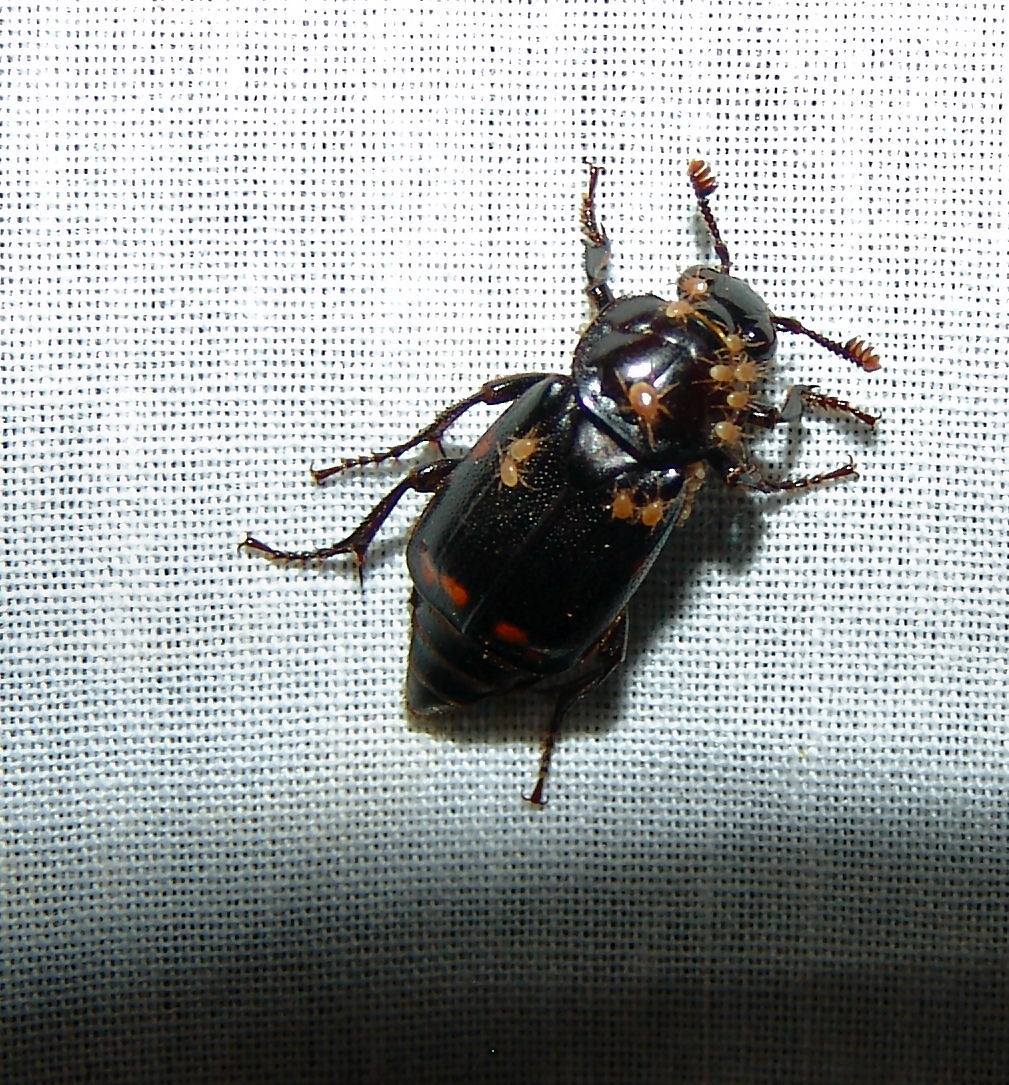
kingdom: Animalia
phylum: Arthropoda
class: Insecta
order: Coleoptera
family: Staphylinidae
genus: Nicrophorus
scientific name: Nicrophorus pustulatus
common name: Pustulated carrion beetle
